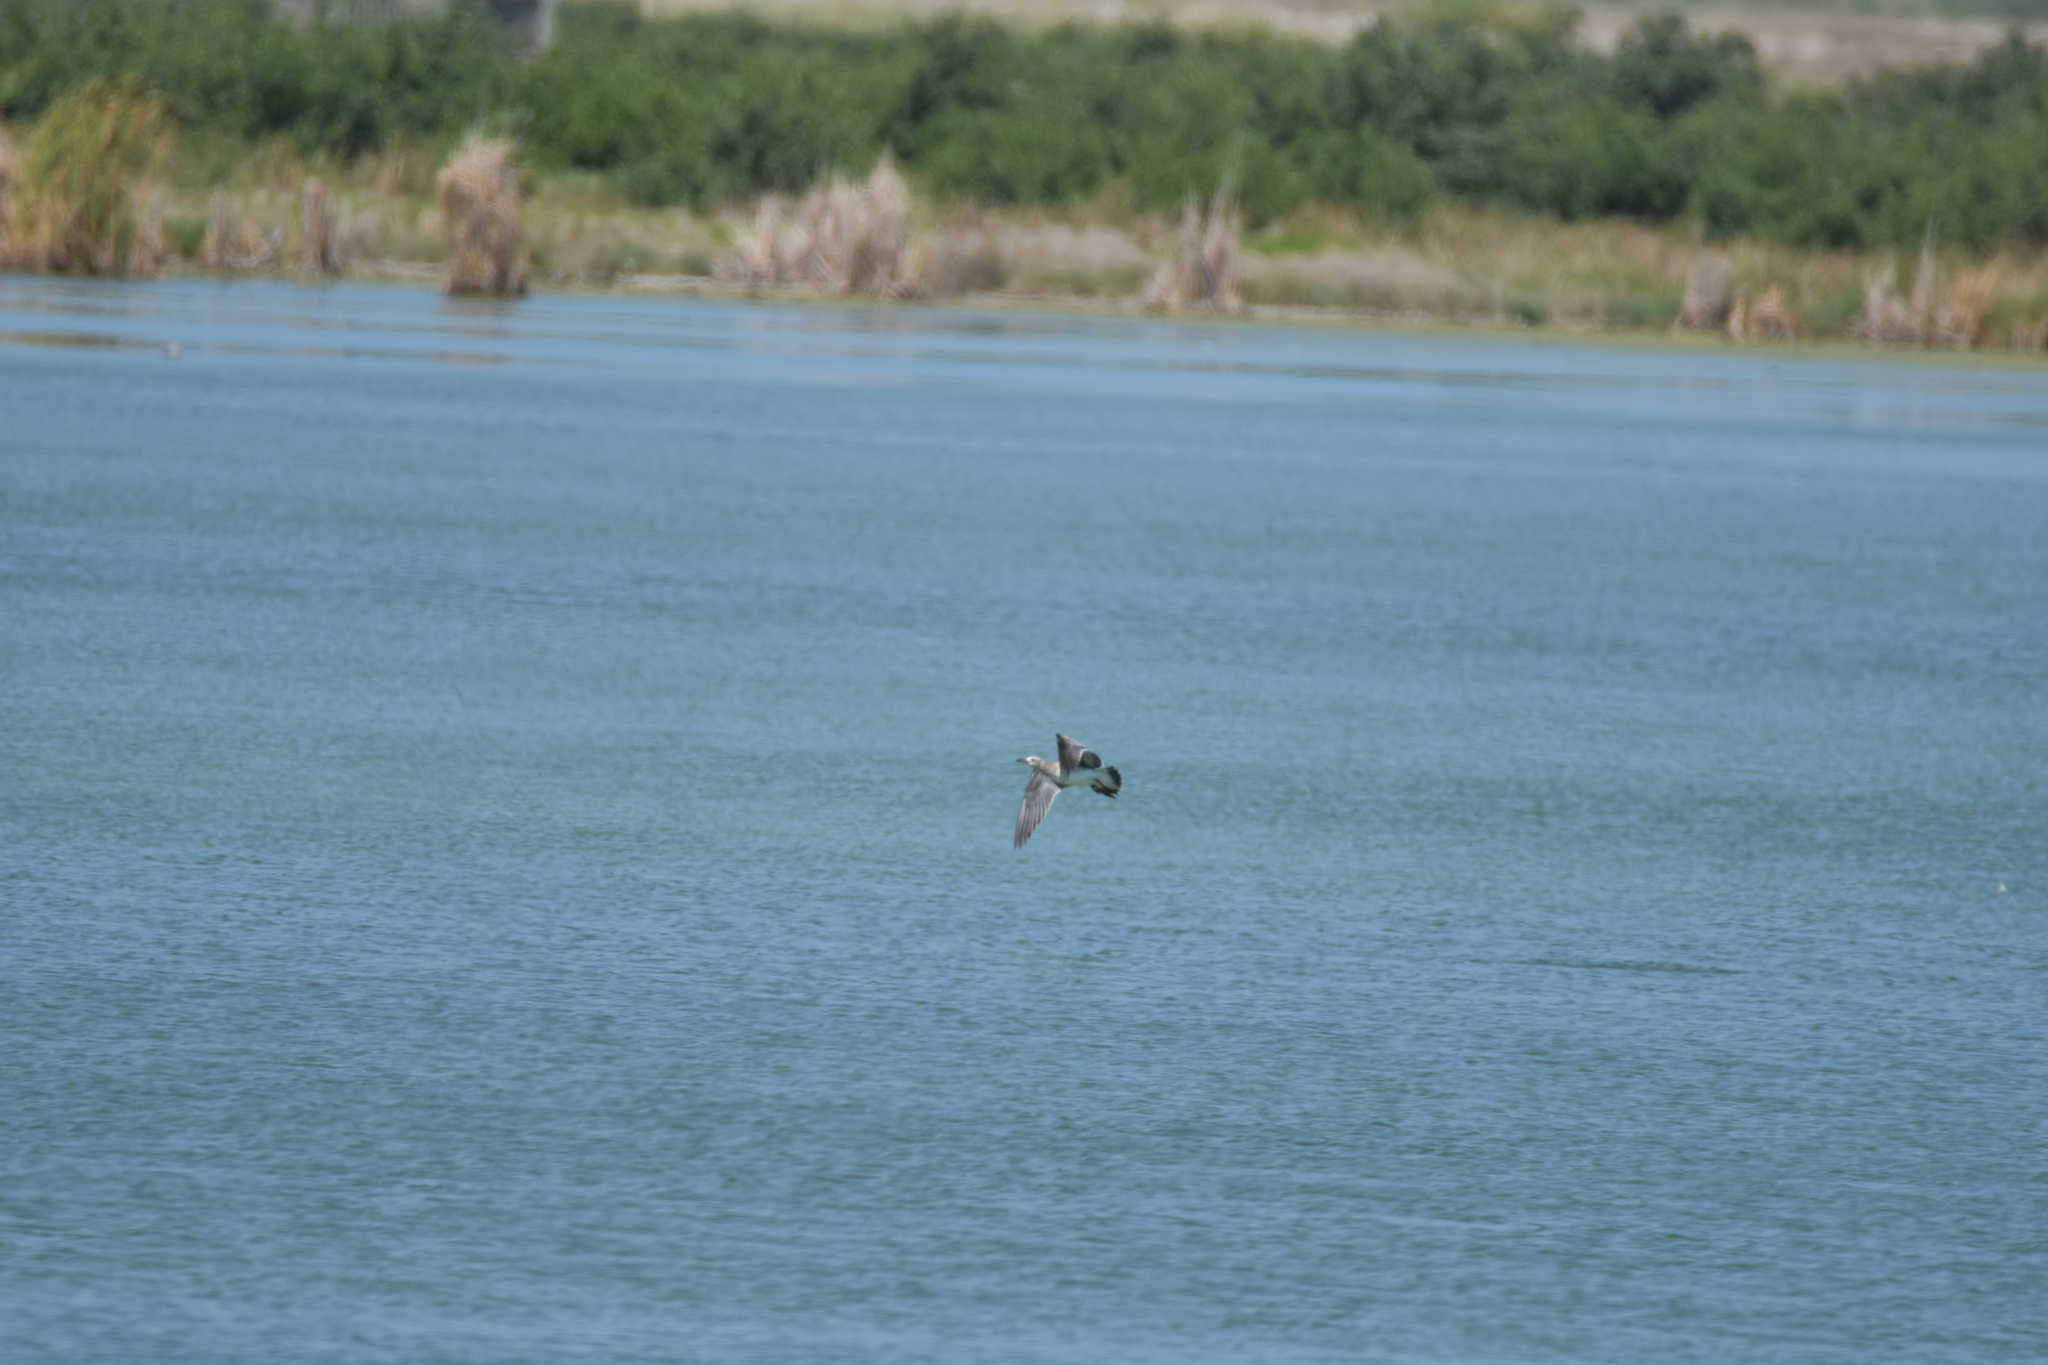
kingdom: Animalia
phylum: Chordata
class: Aves
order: Charadriiformes
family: Laridae
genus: Leucophaeus
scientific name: Leucophaeus atricilla
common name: Laughing gull
